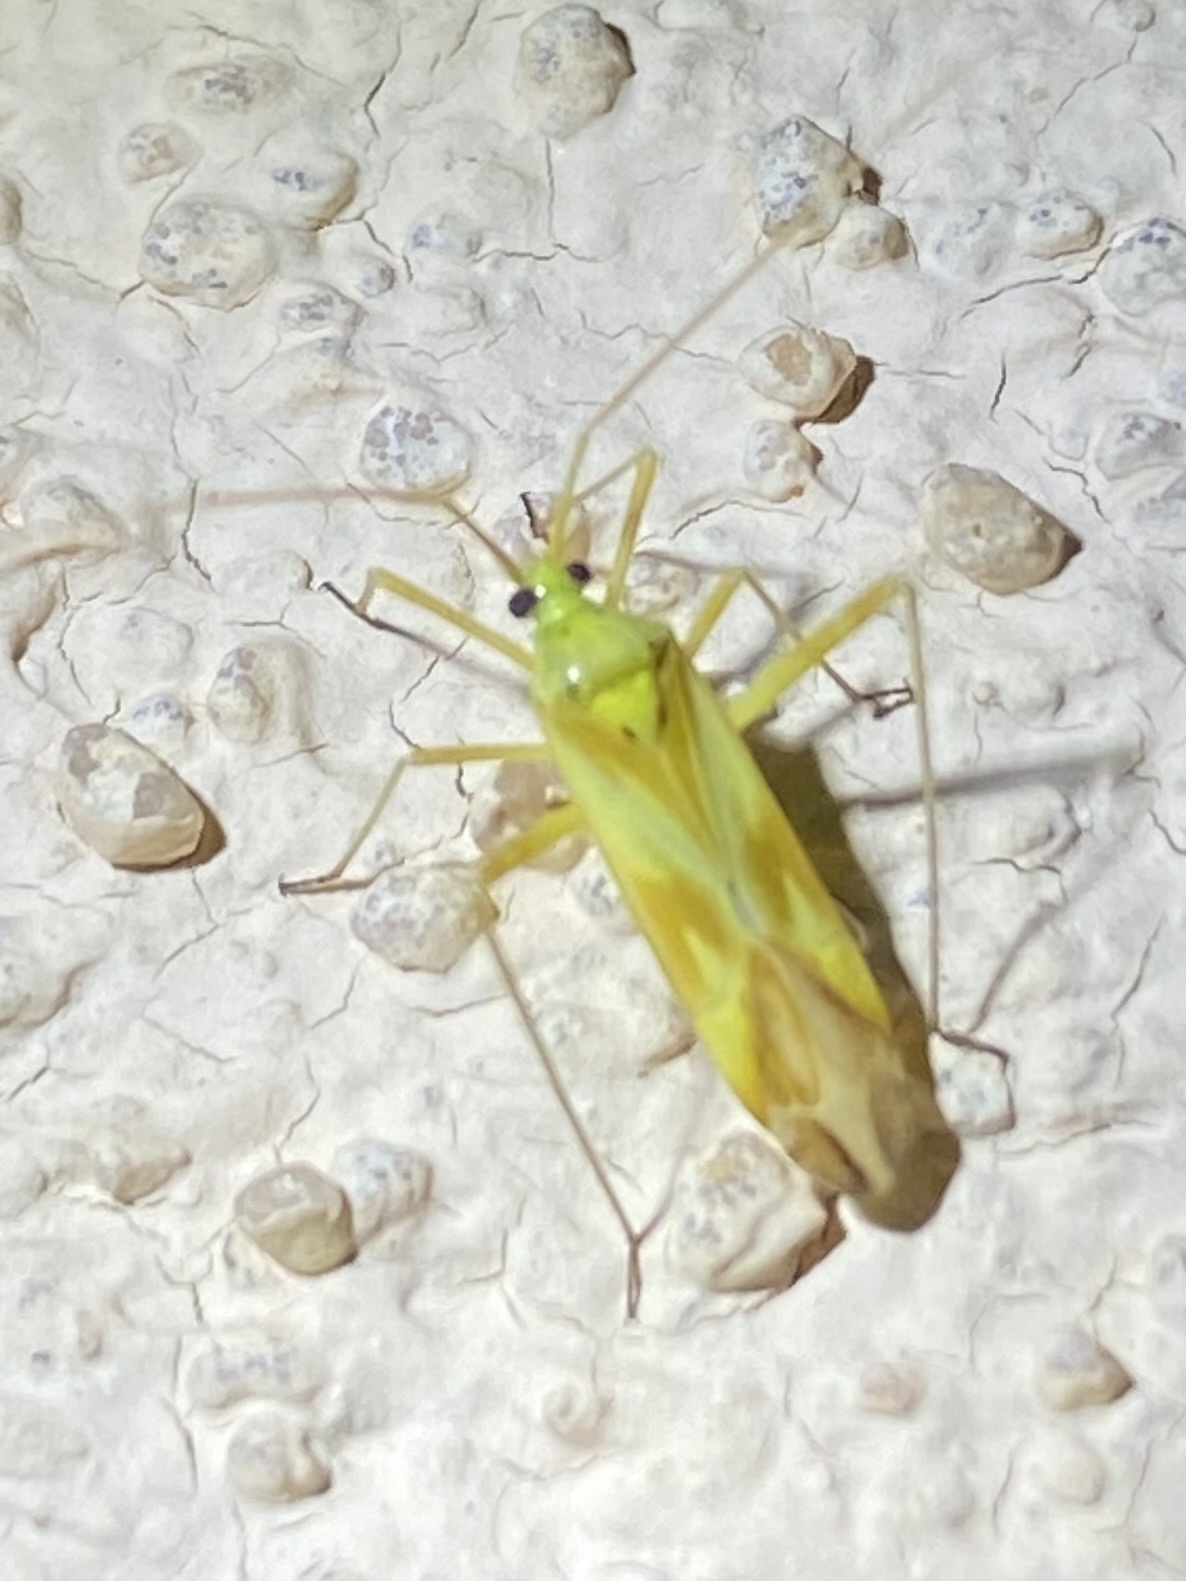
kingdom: Animalia
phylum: Arthropoda
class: Insecta
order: Hemiptera
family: Miridae
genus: Phytocoris
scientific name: Phytocoris laevis
